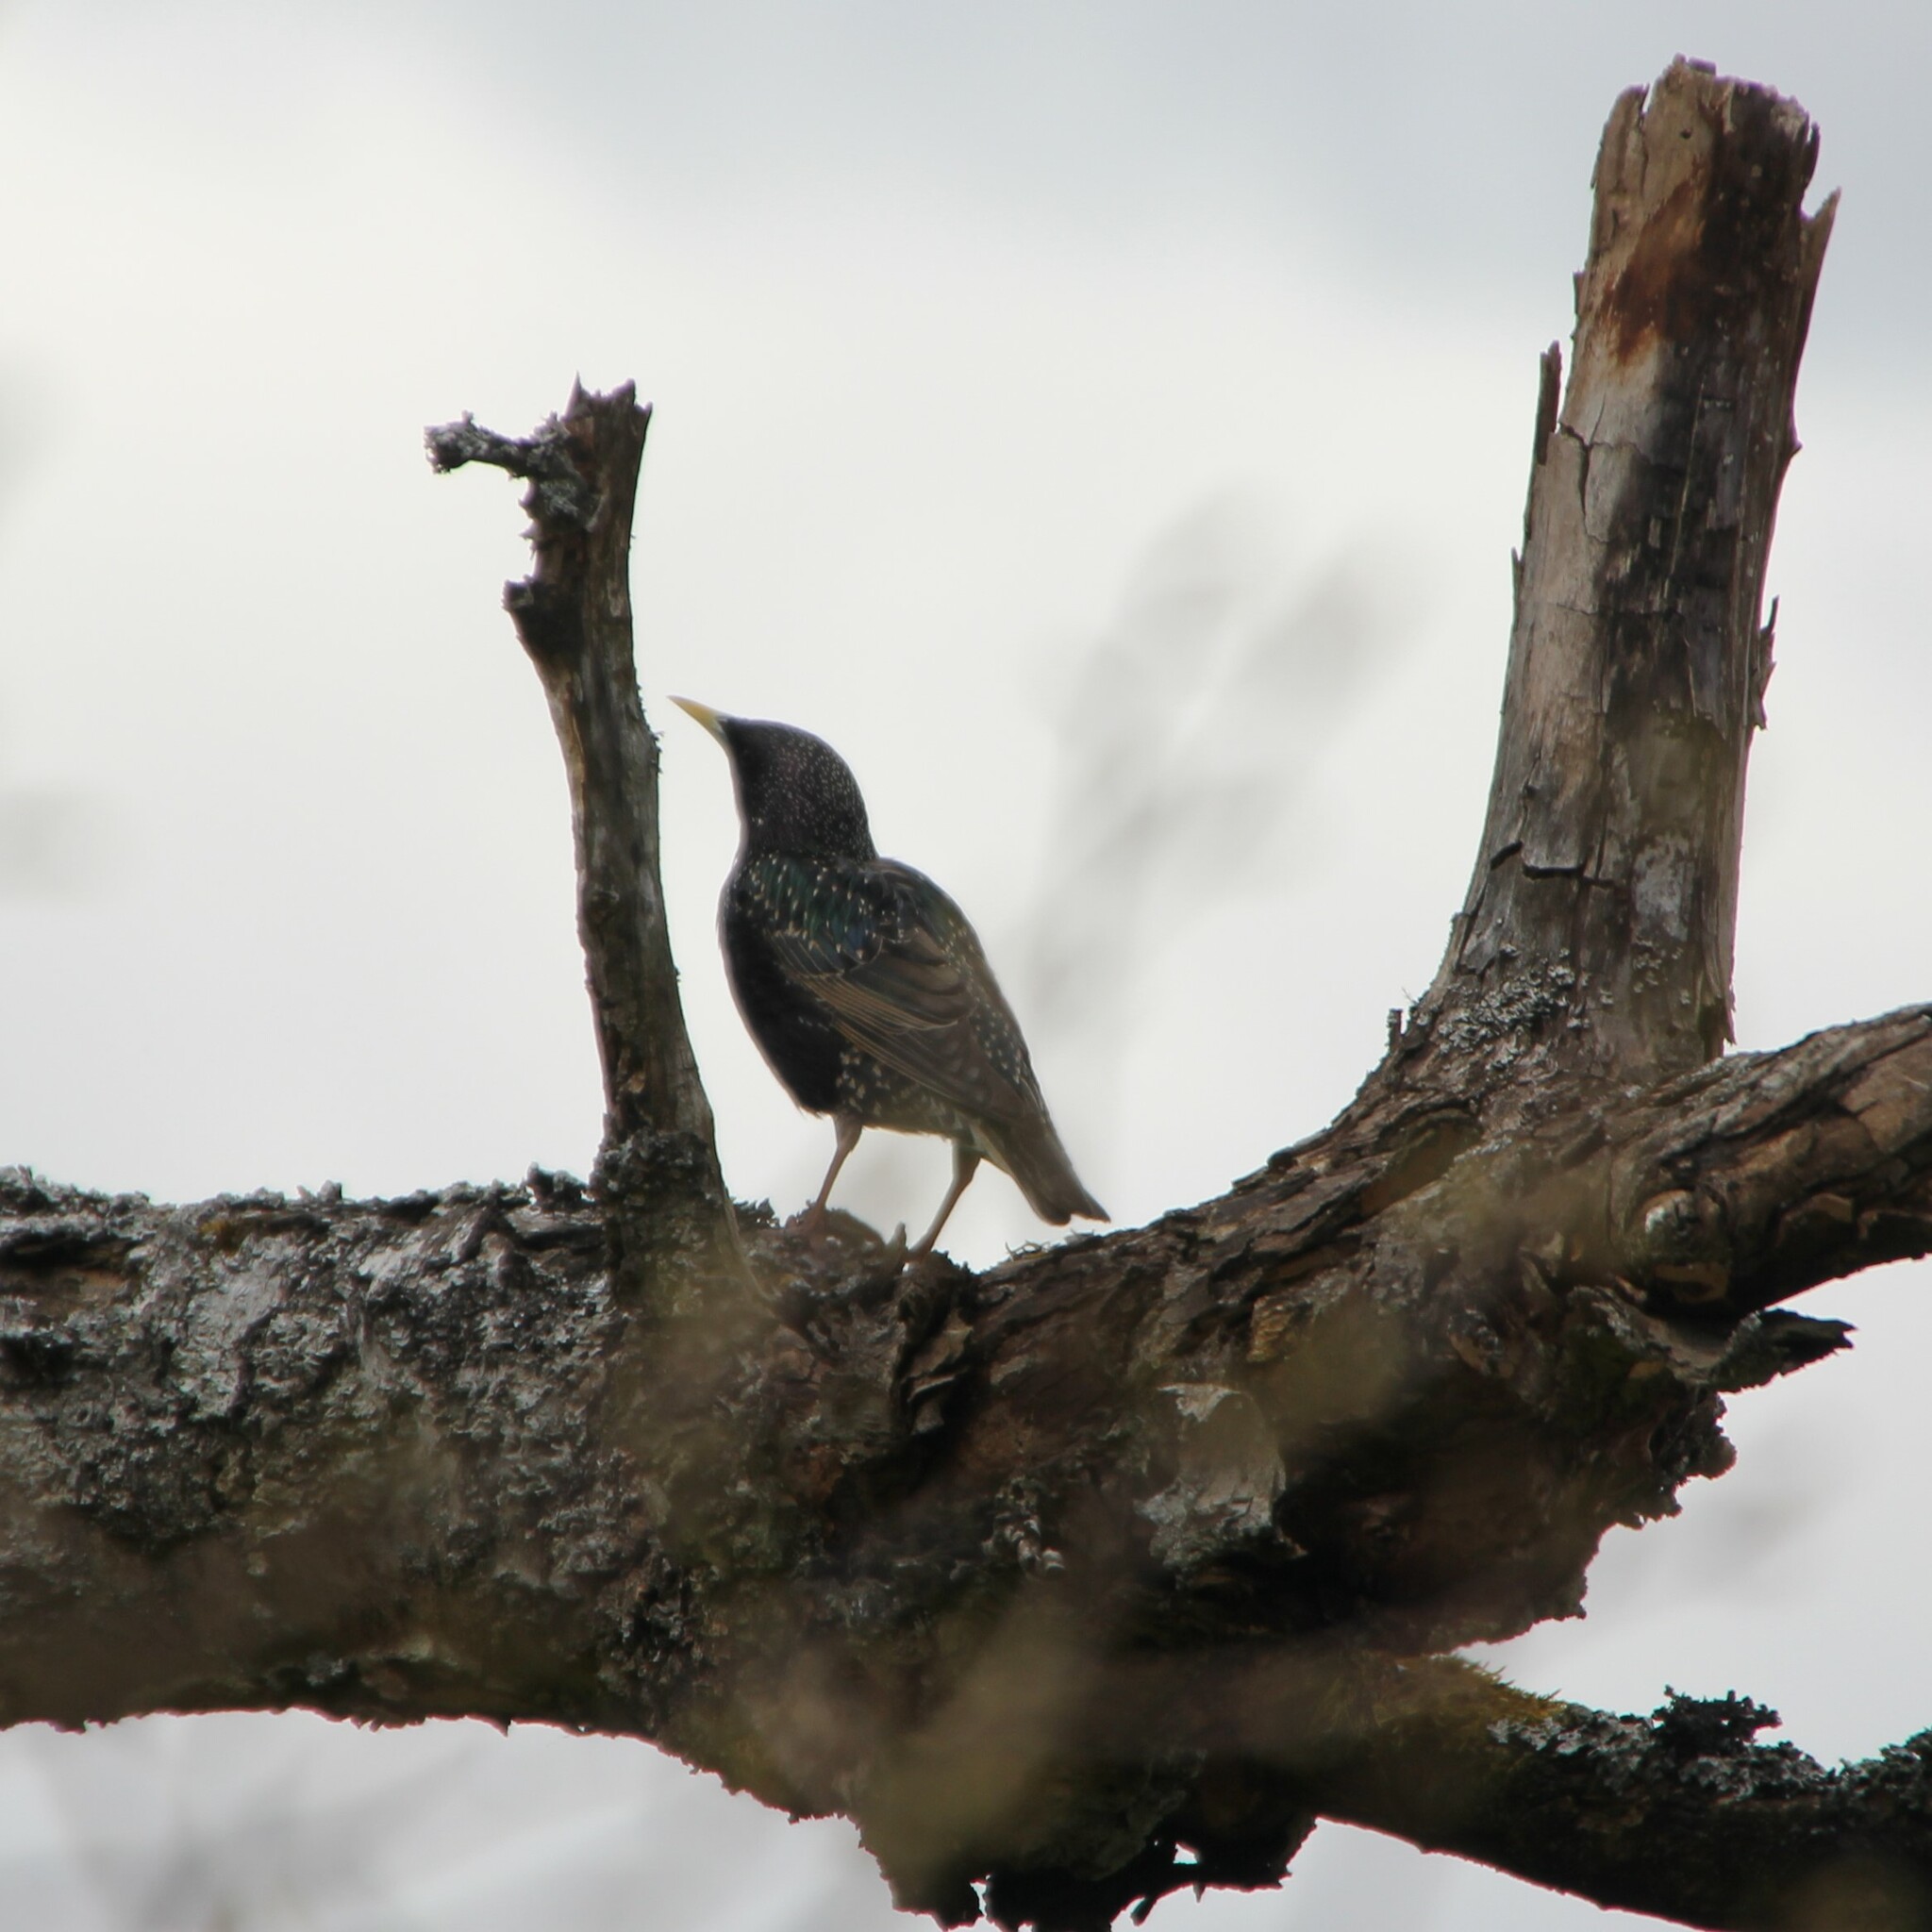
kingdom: Animalia
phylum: Chordata
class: Aves
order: Passeriformes
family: Sturnidae
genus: Sturnus
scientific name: Sturnus vulgaris
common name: Common starling
